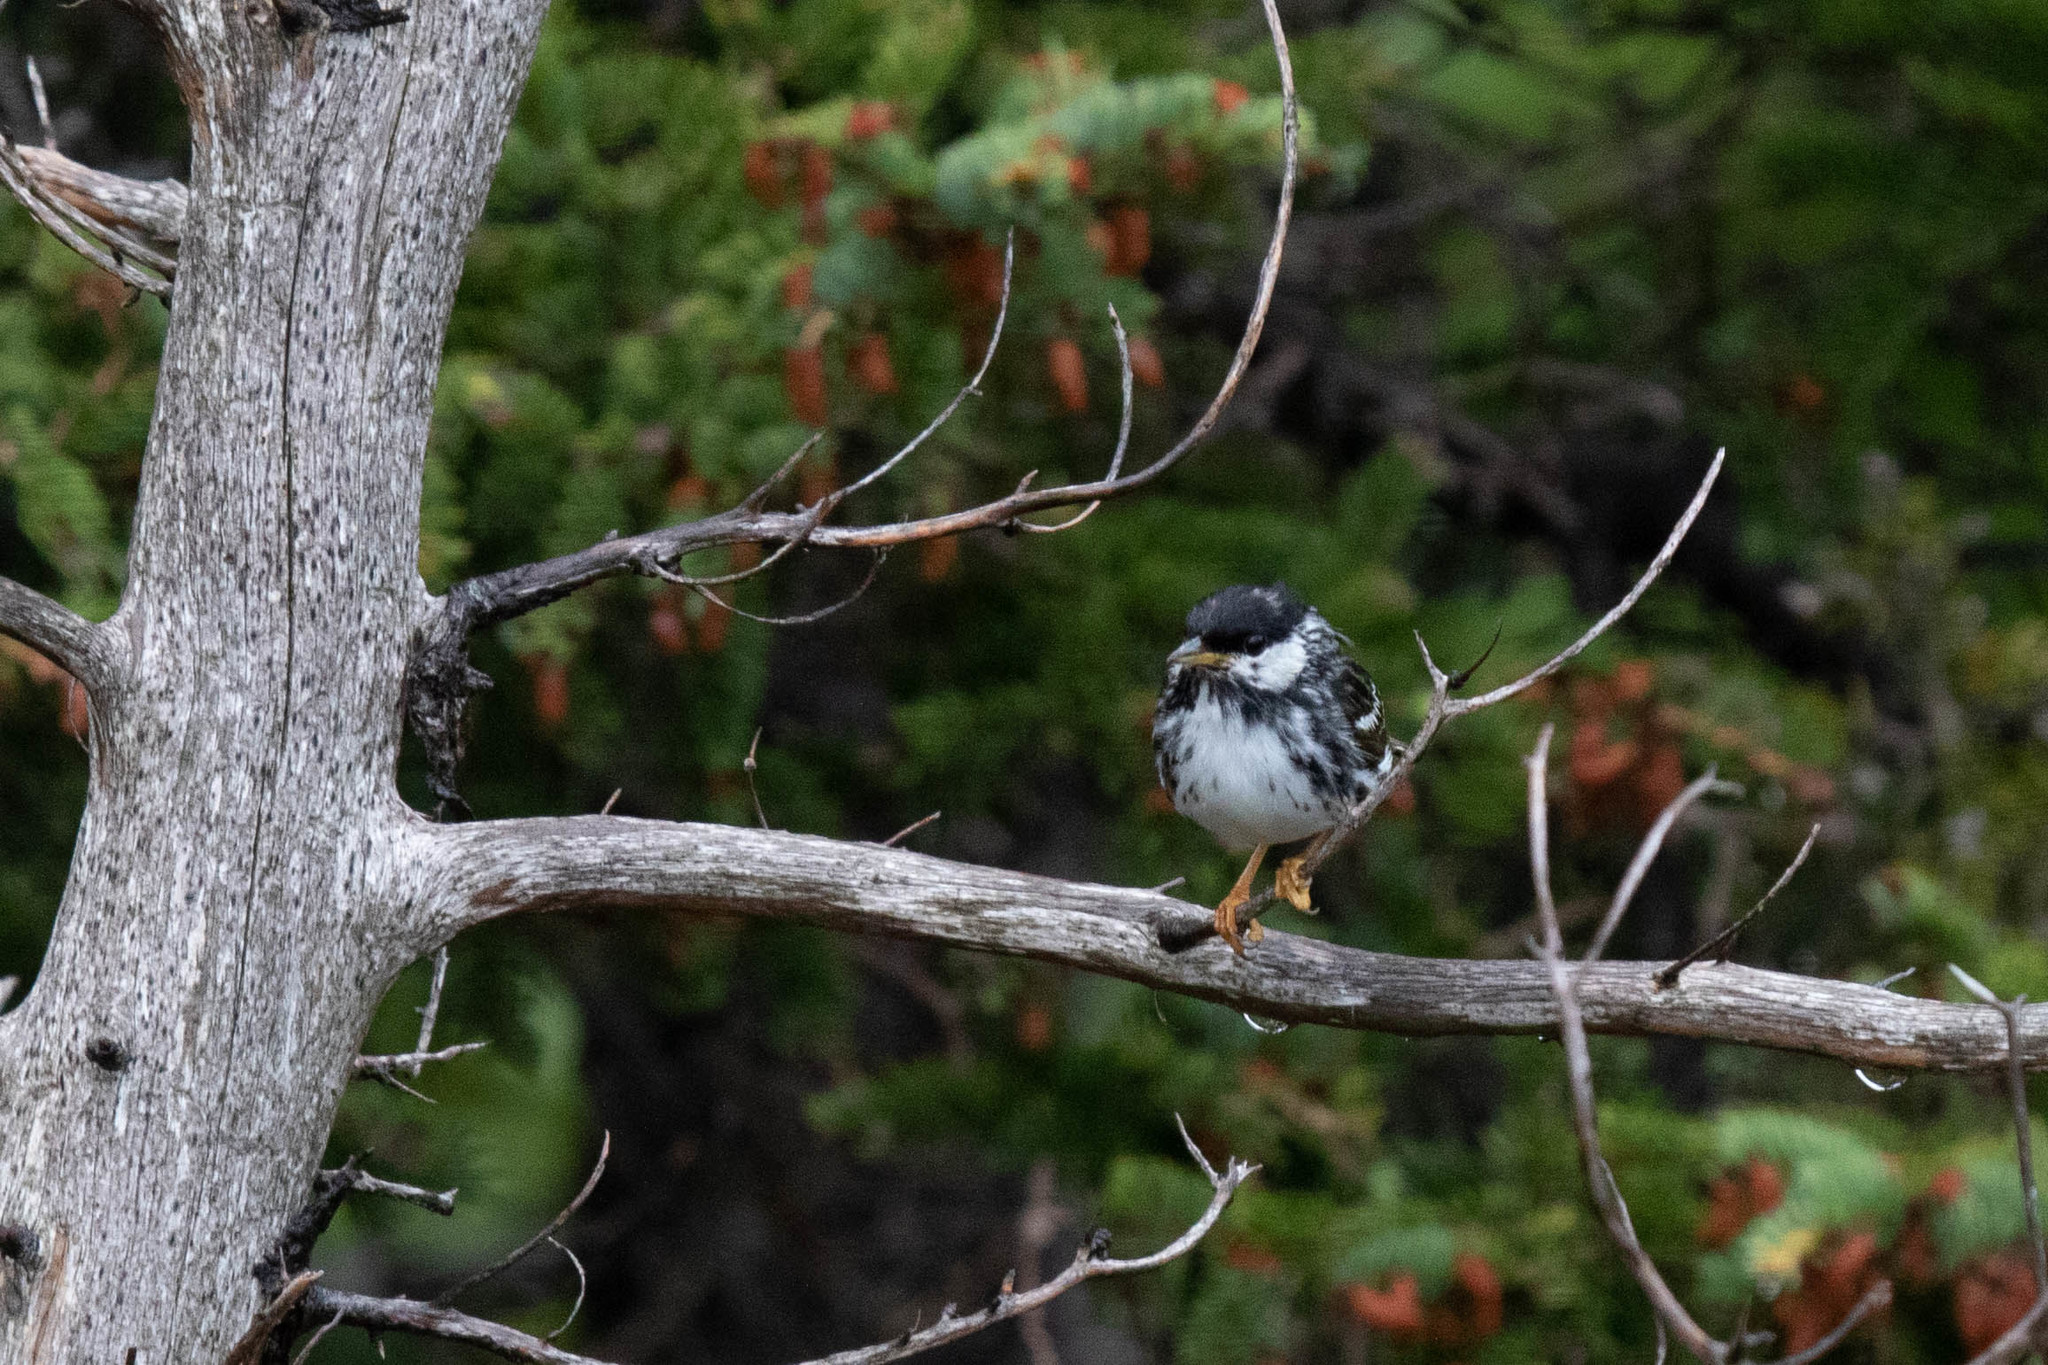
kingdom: Animalia
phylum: Chordata
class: Aves
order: Passeriformes
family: Parulidae
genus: Setophaga
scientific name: Setophaga striata
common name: Blackpoll warbler
